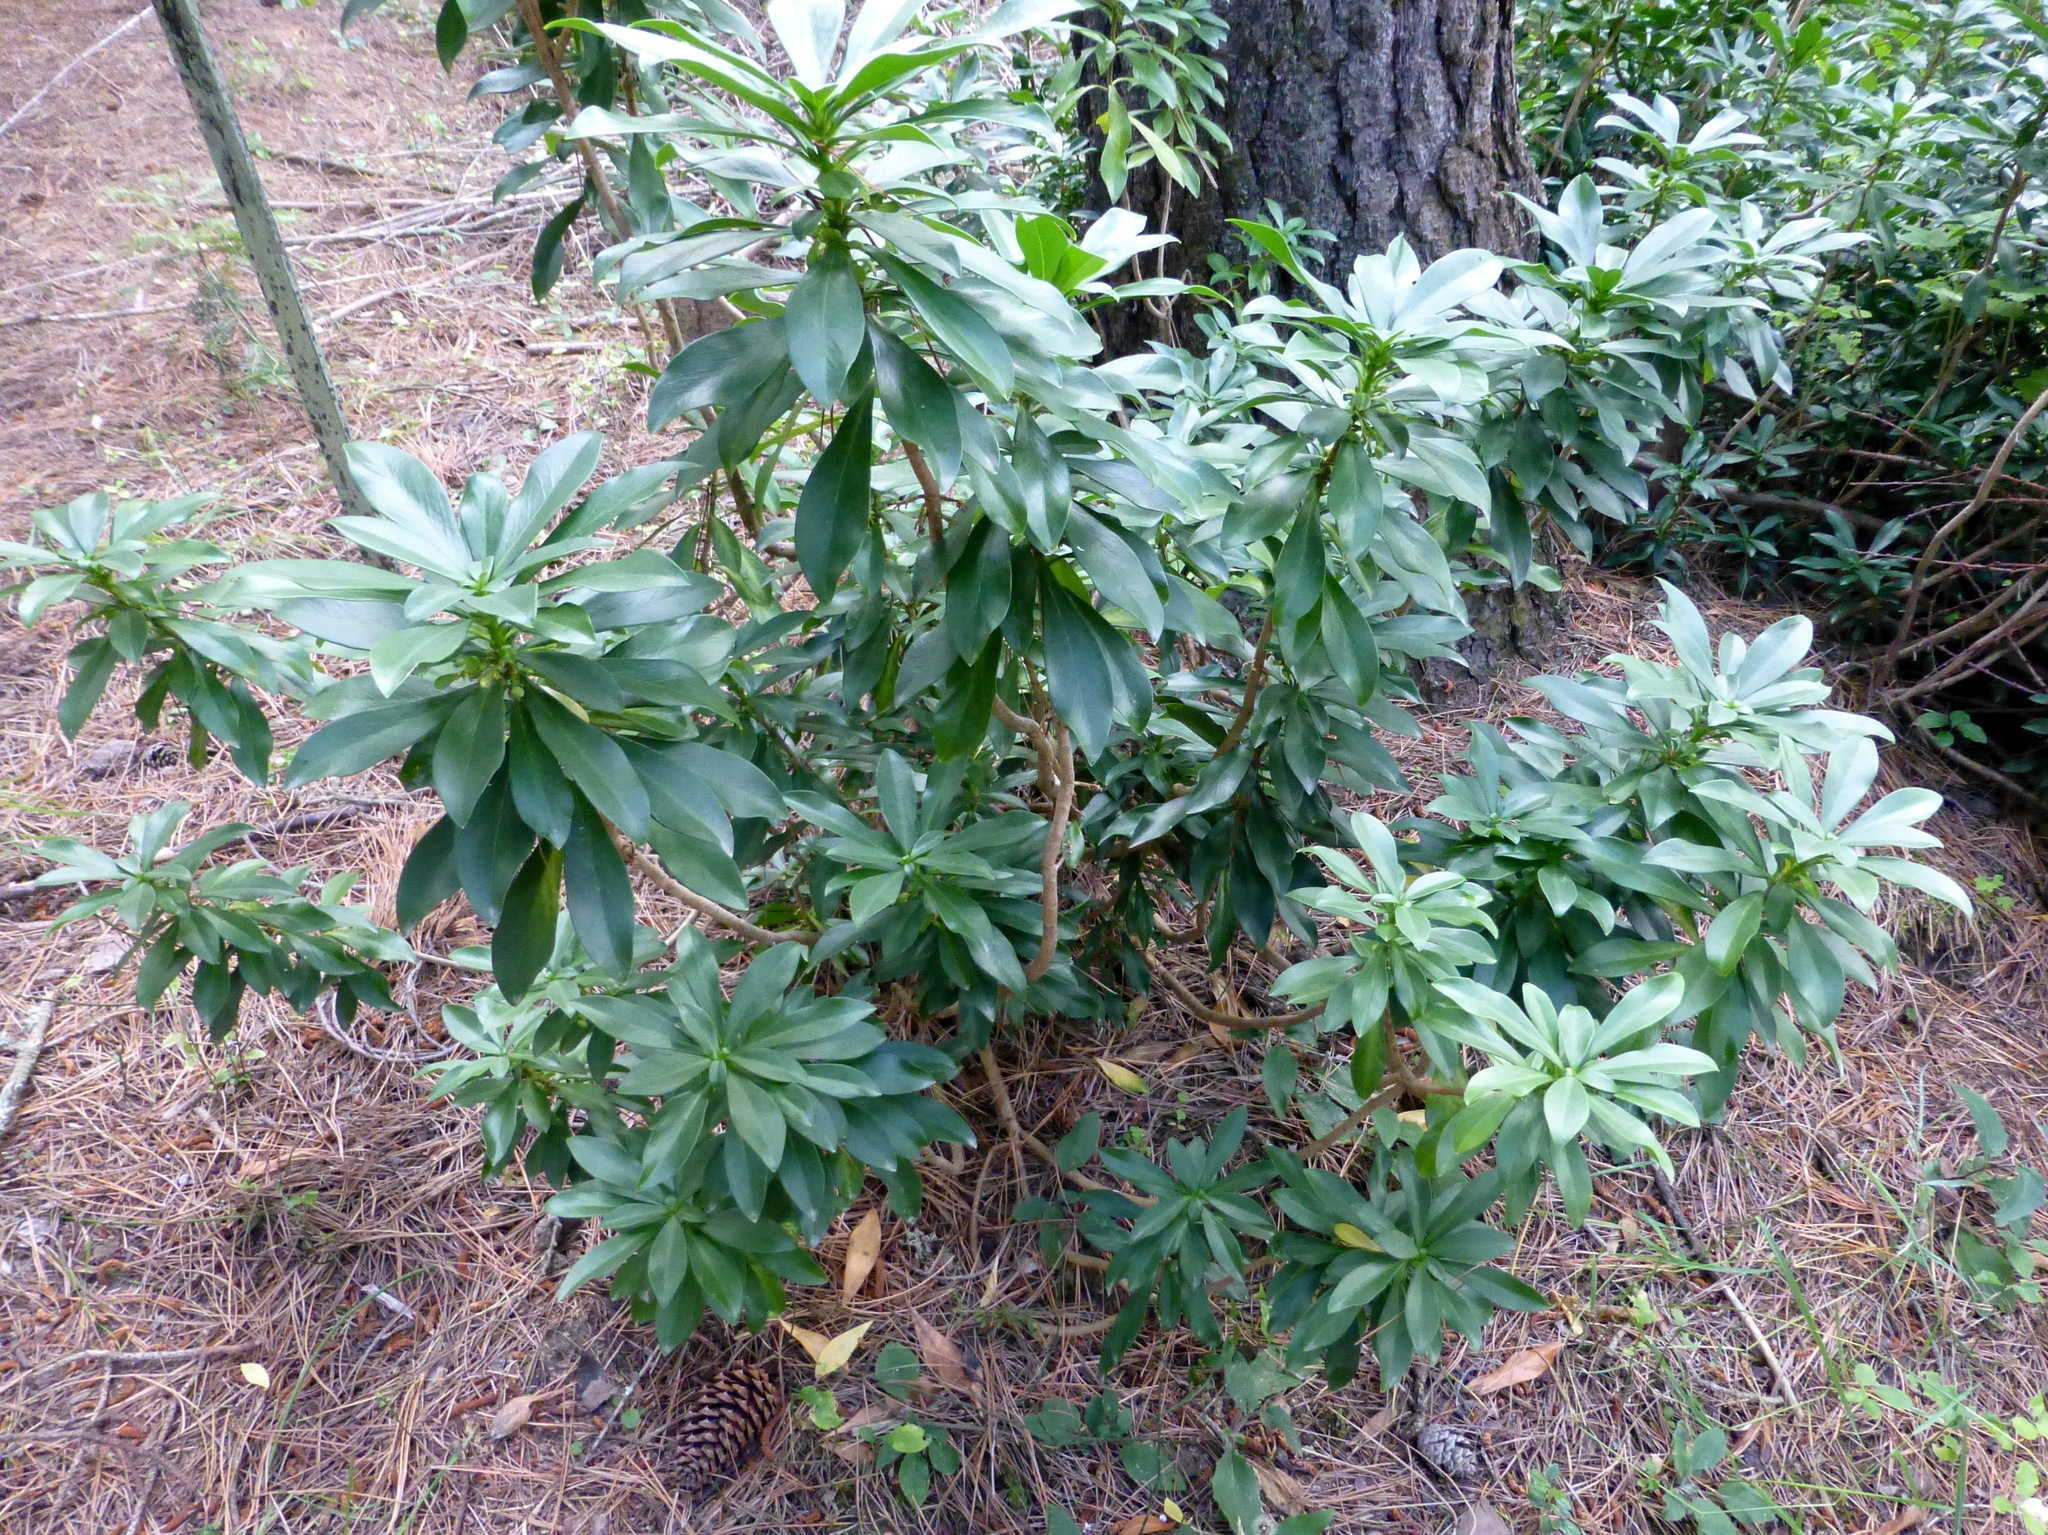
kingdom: Plantae
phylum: Tracheophyta
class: Magnoliopsida
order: Malvales
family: Thymelaeaceae
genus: Daphne
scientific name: Daphne laureola
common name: Spurge-laurel
